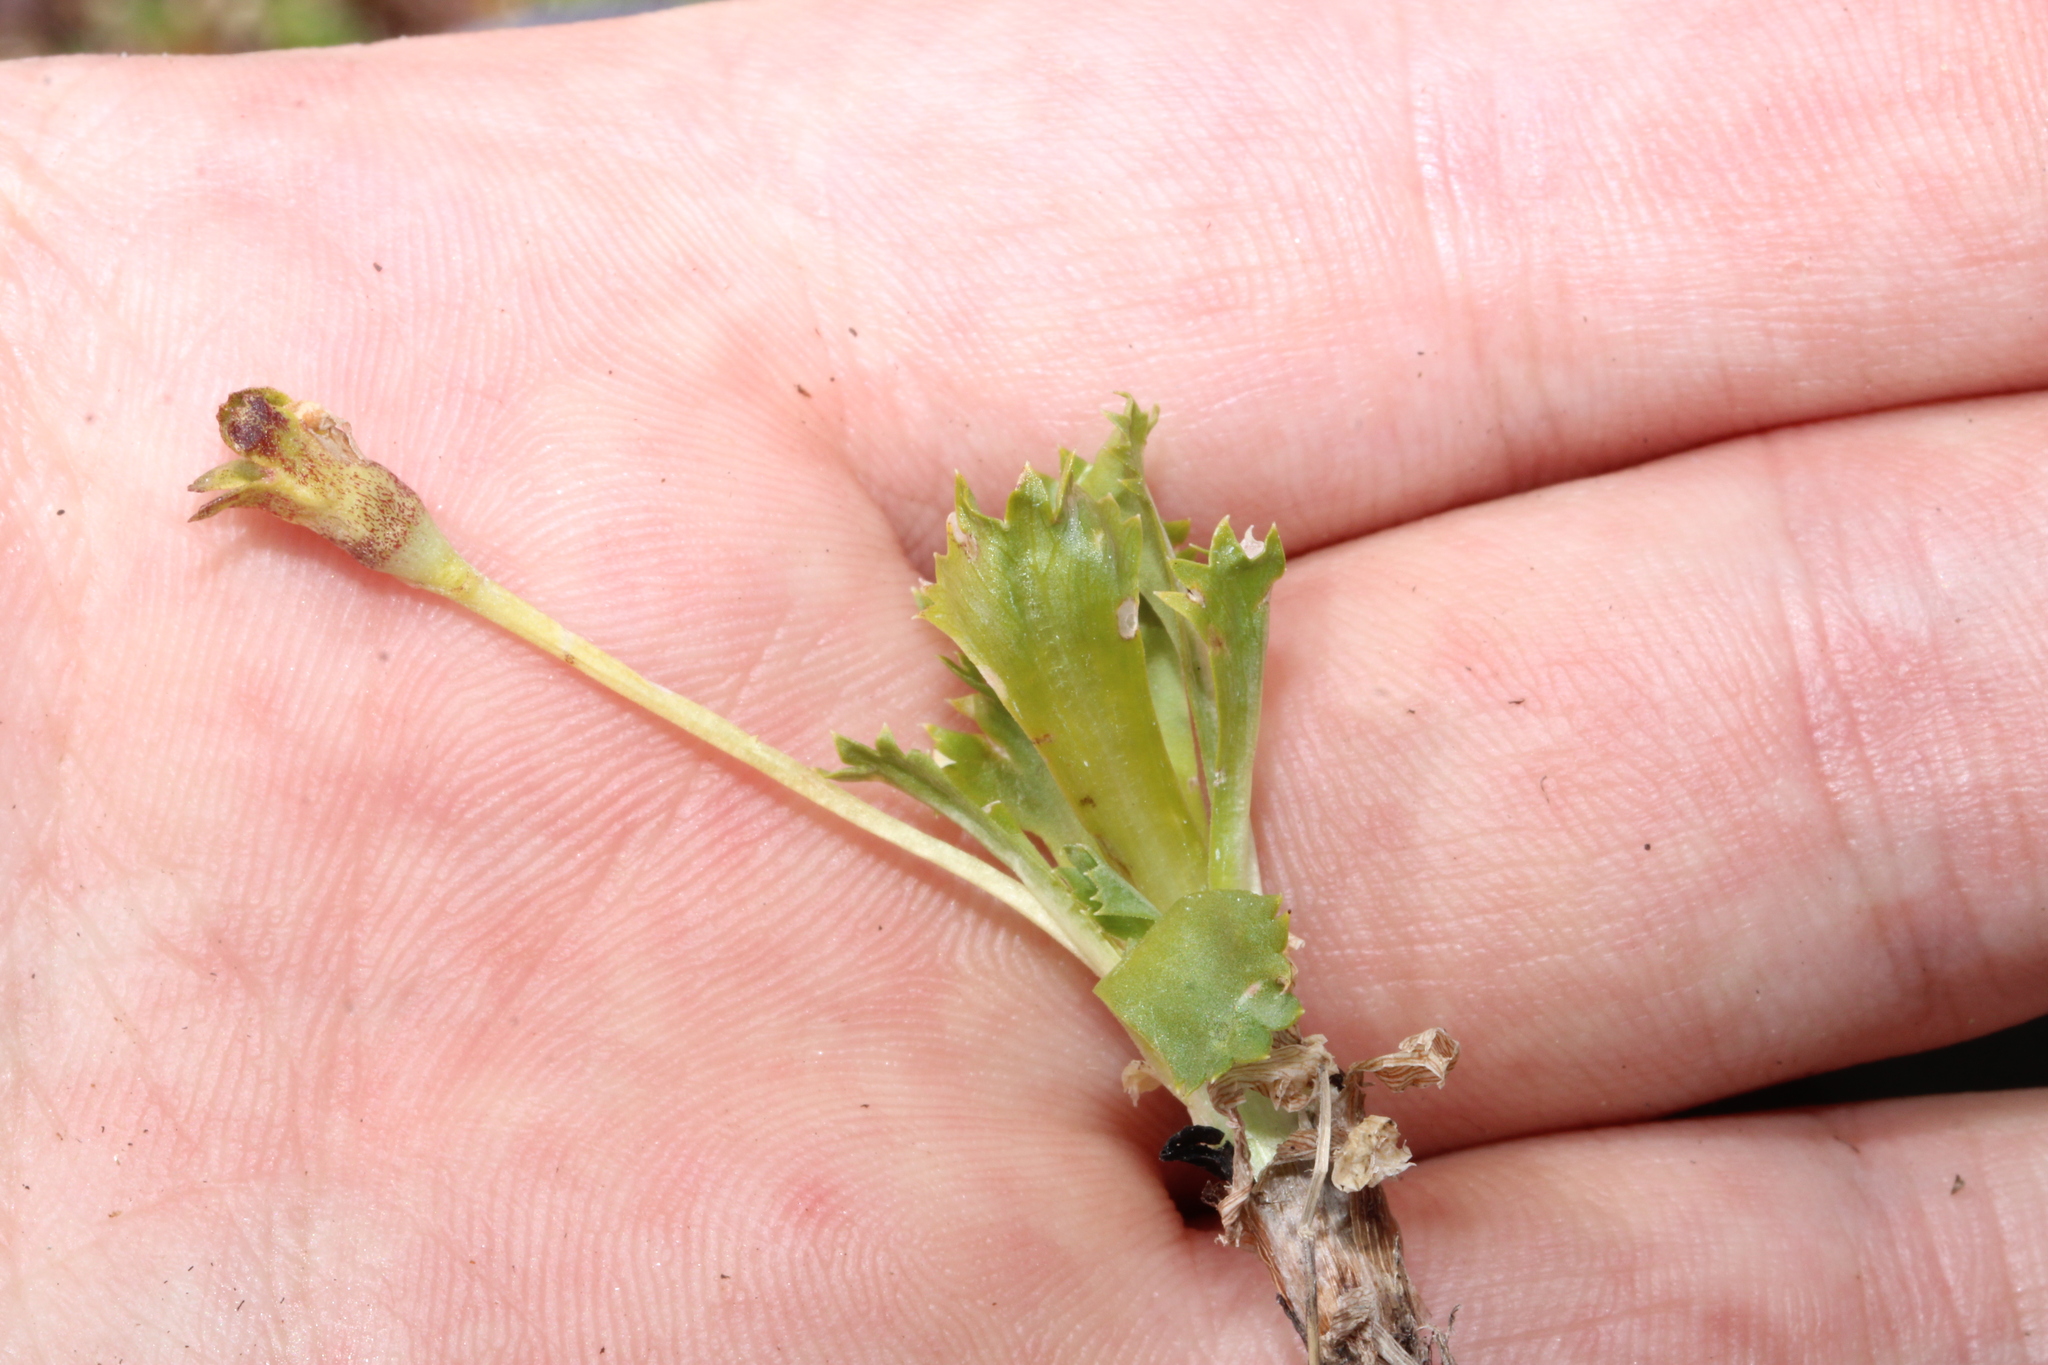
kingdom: Plantae
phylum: Tracheophyta
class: Magnoliopsida
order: Ericales
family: Primulaceae
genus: Primula
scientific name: Primula minima
